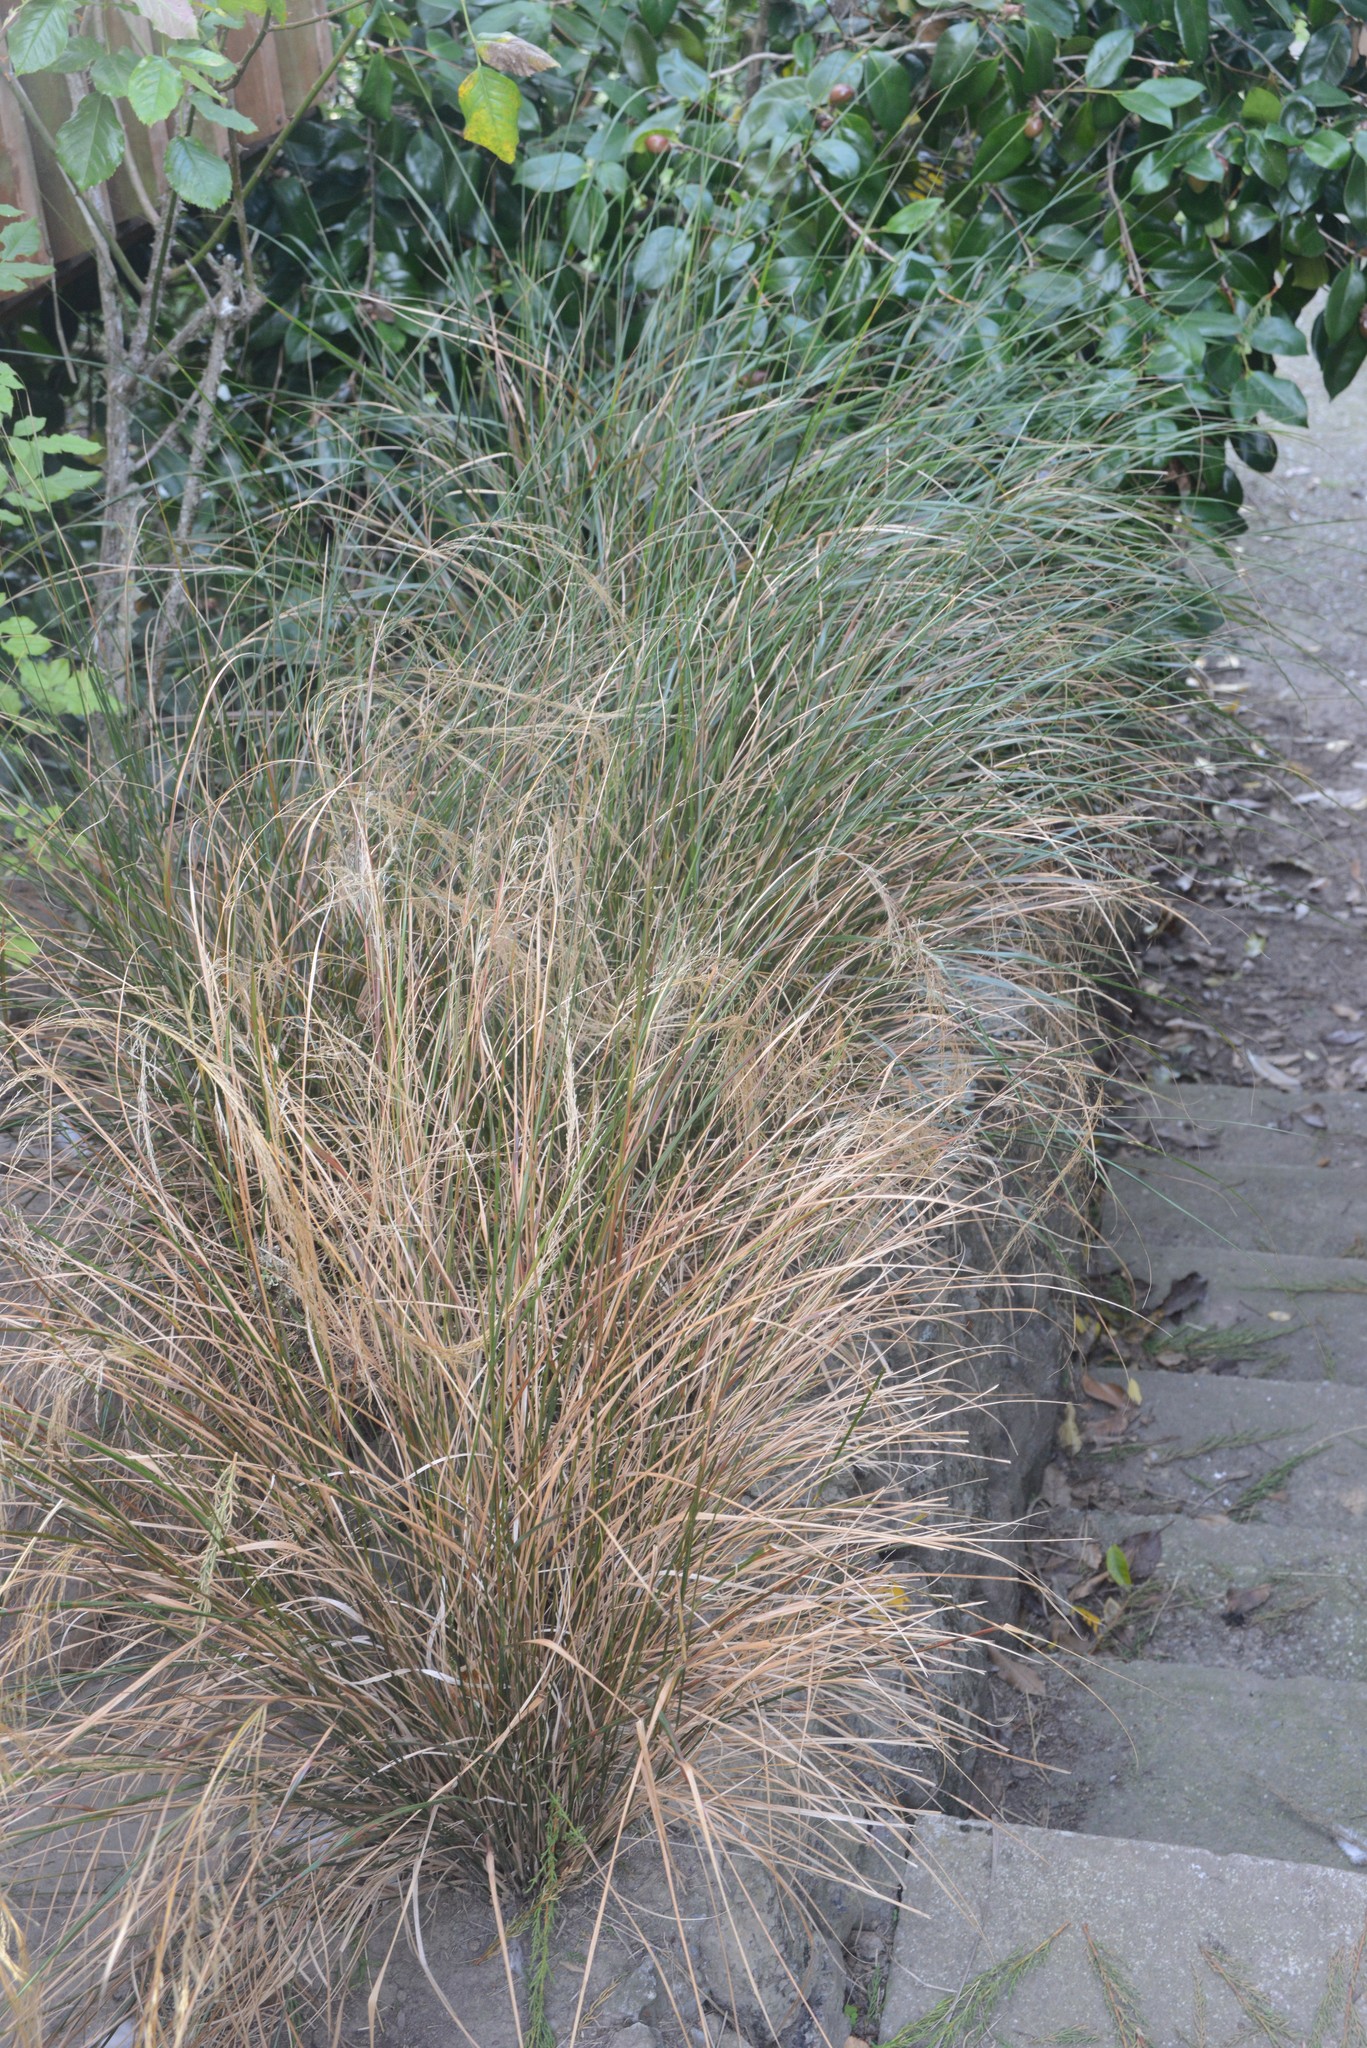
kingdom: Plantae
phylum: Tracheophyta
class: Liliopsida
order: Poales
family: Poaceae
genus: Anemanthele
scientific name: Anemanthele lessoniana
